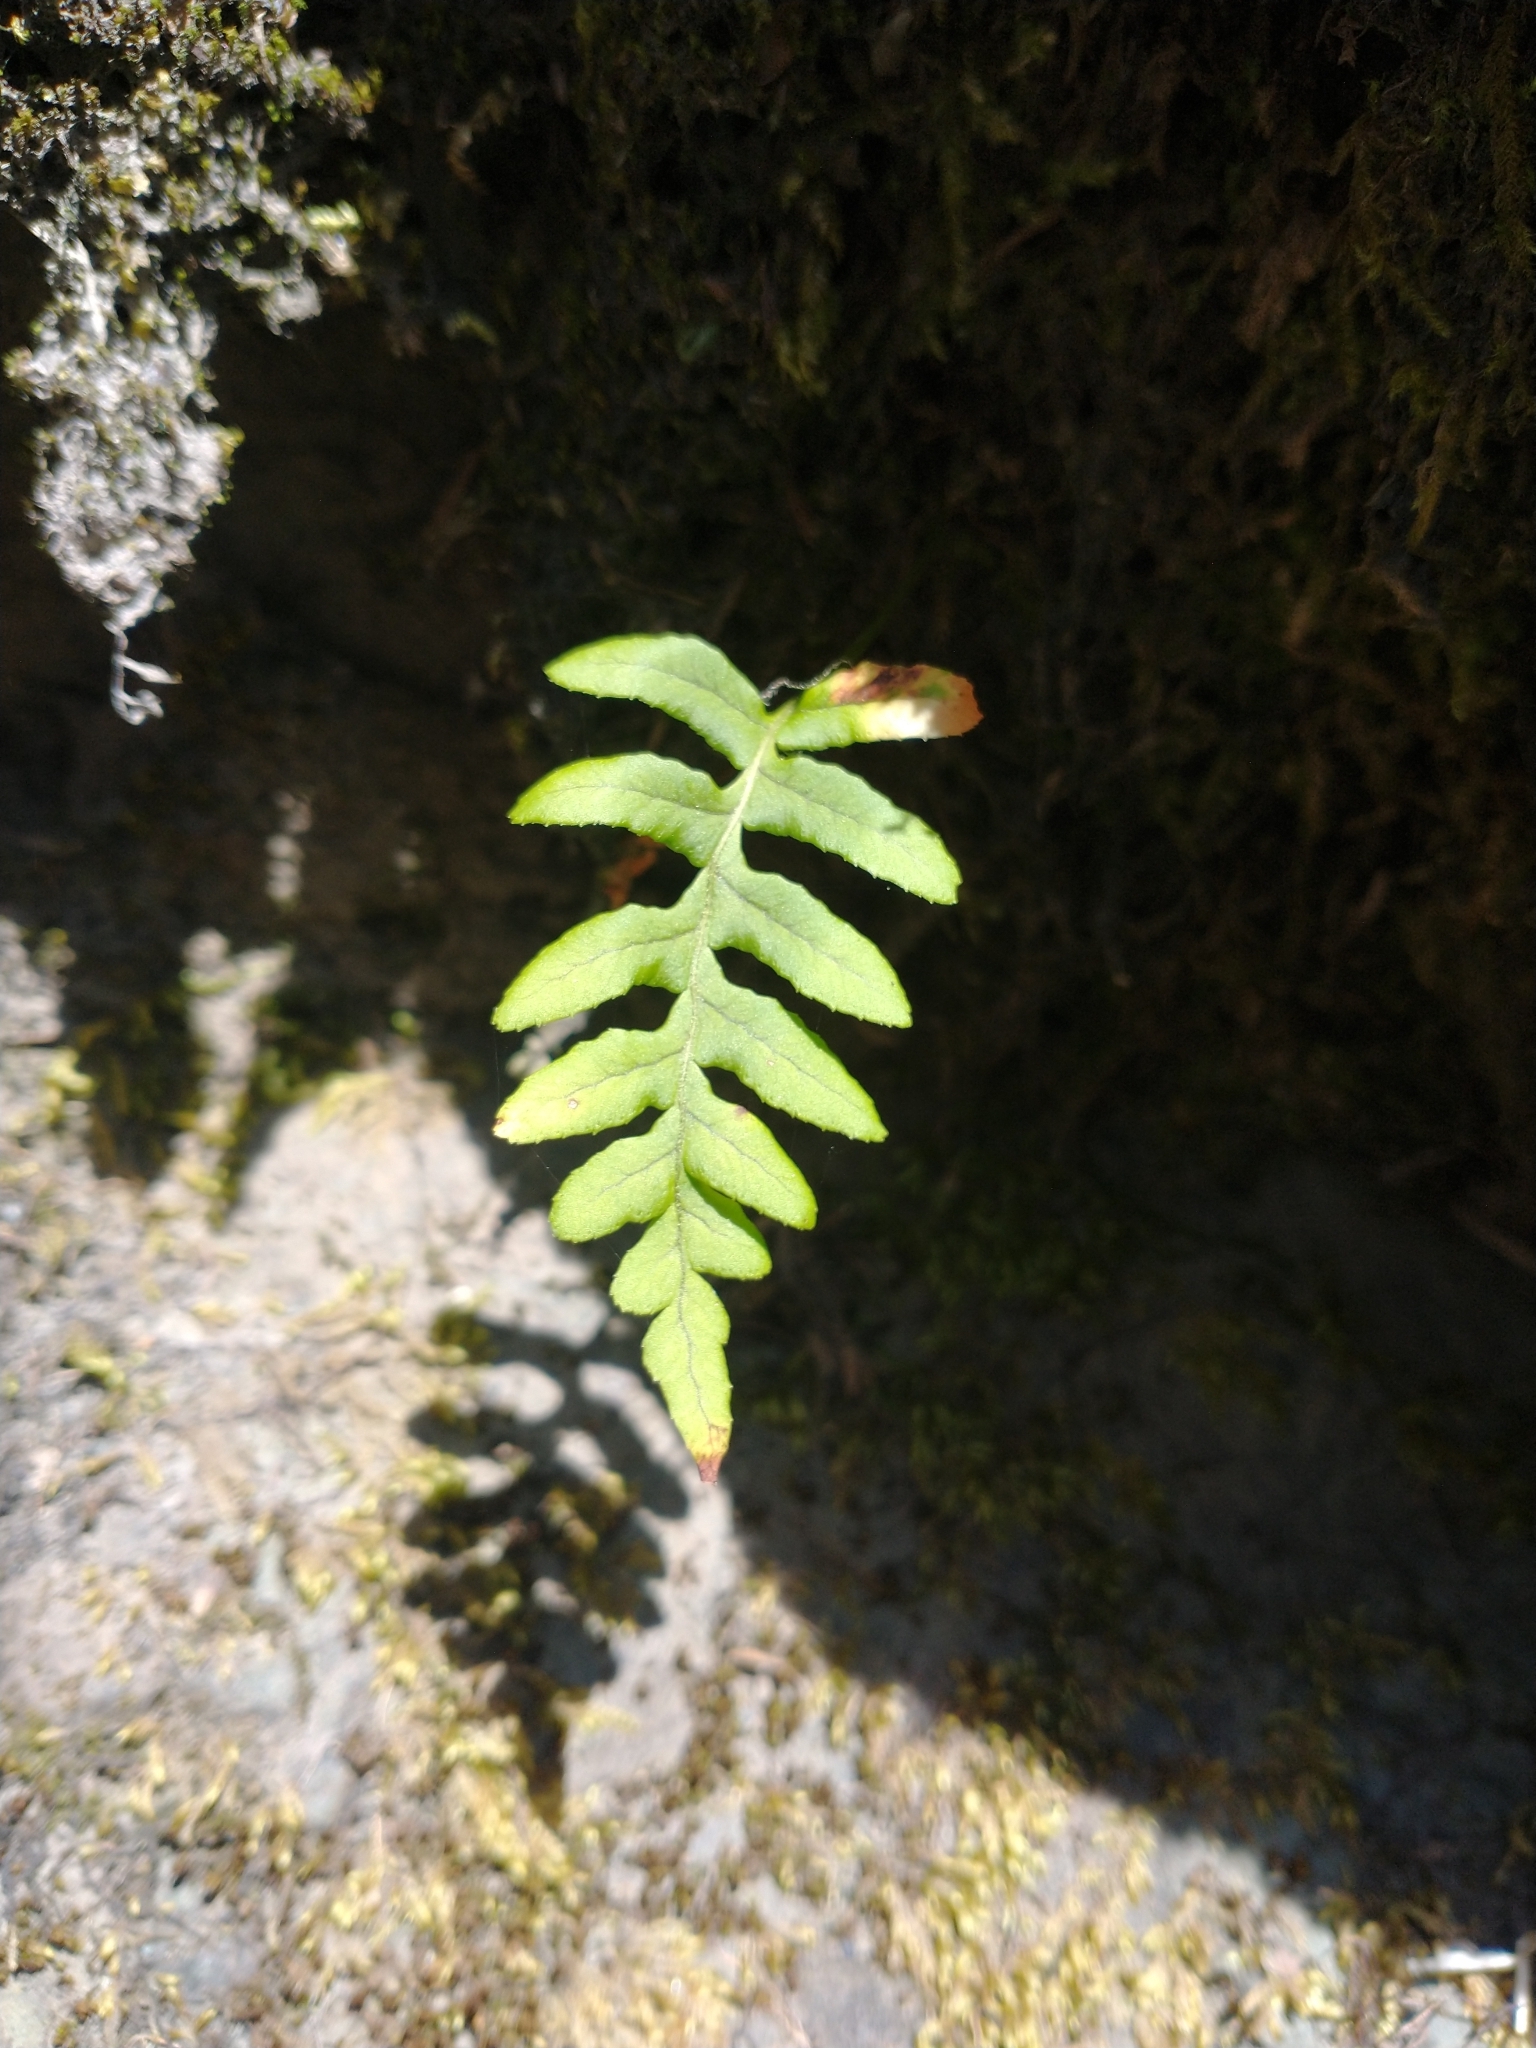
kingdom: Plantae
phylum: Tracheophyta
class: Polypodiopsida
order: Polypodiales
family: Polypodiaceae
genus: Polypodium
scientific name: Polypodium glycyrrhiza
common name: Licorice fern
